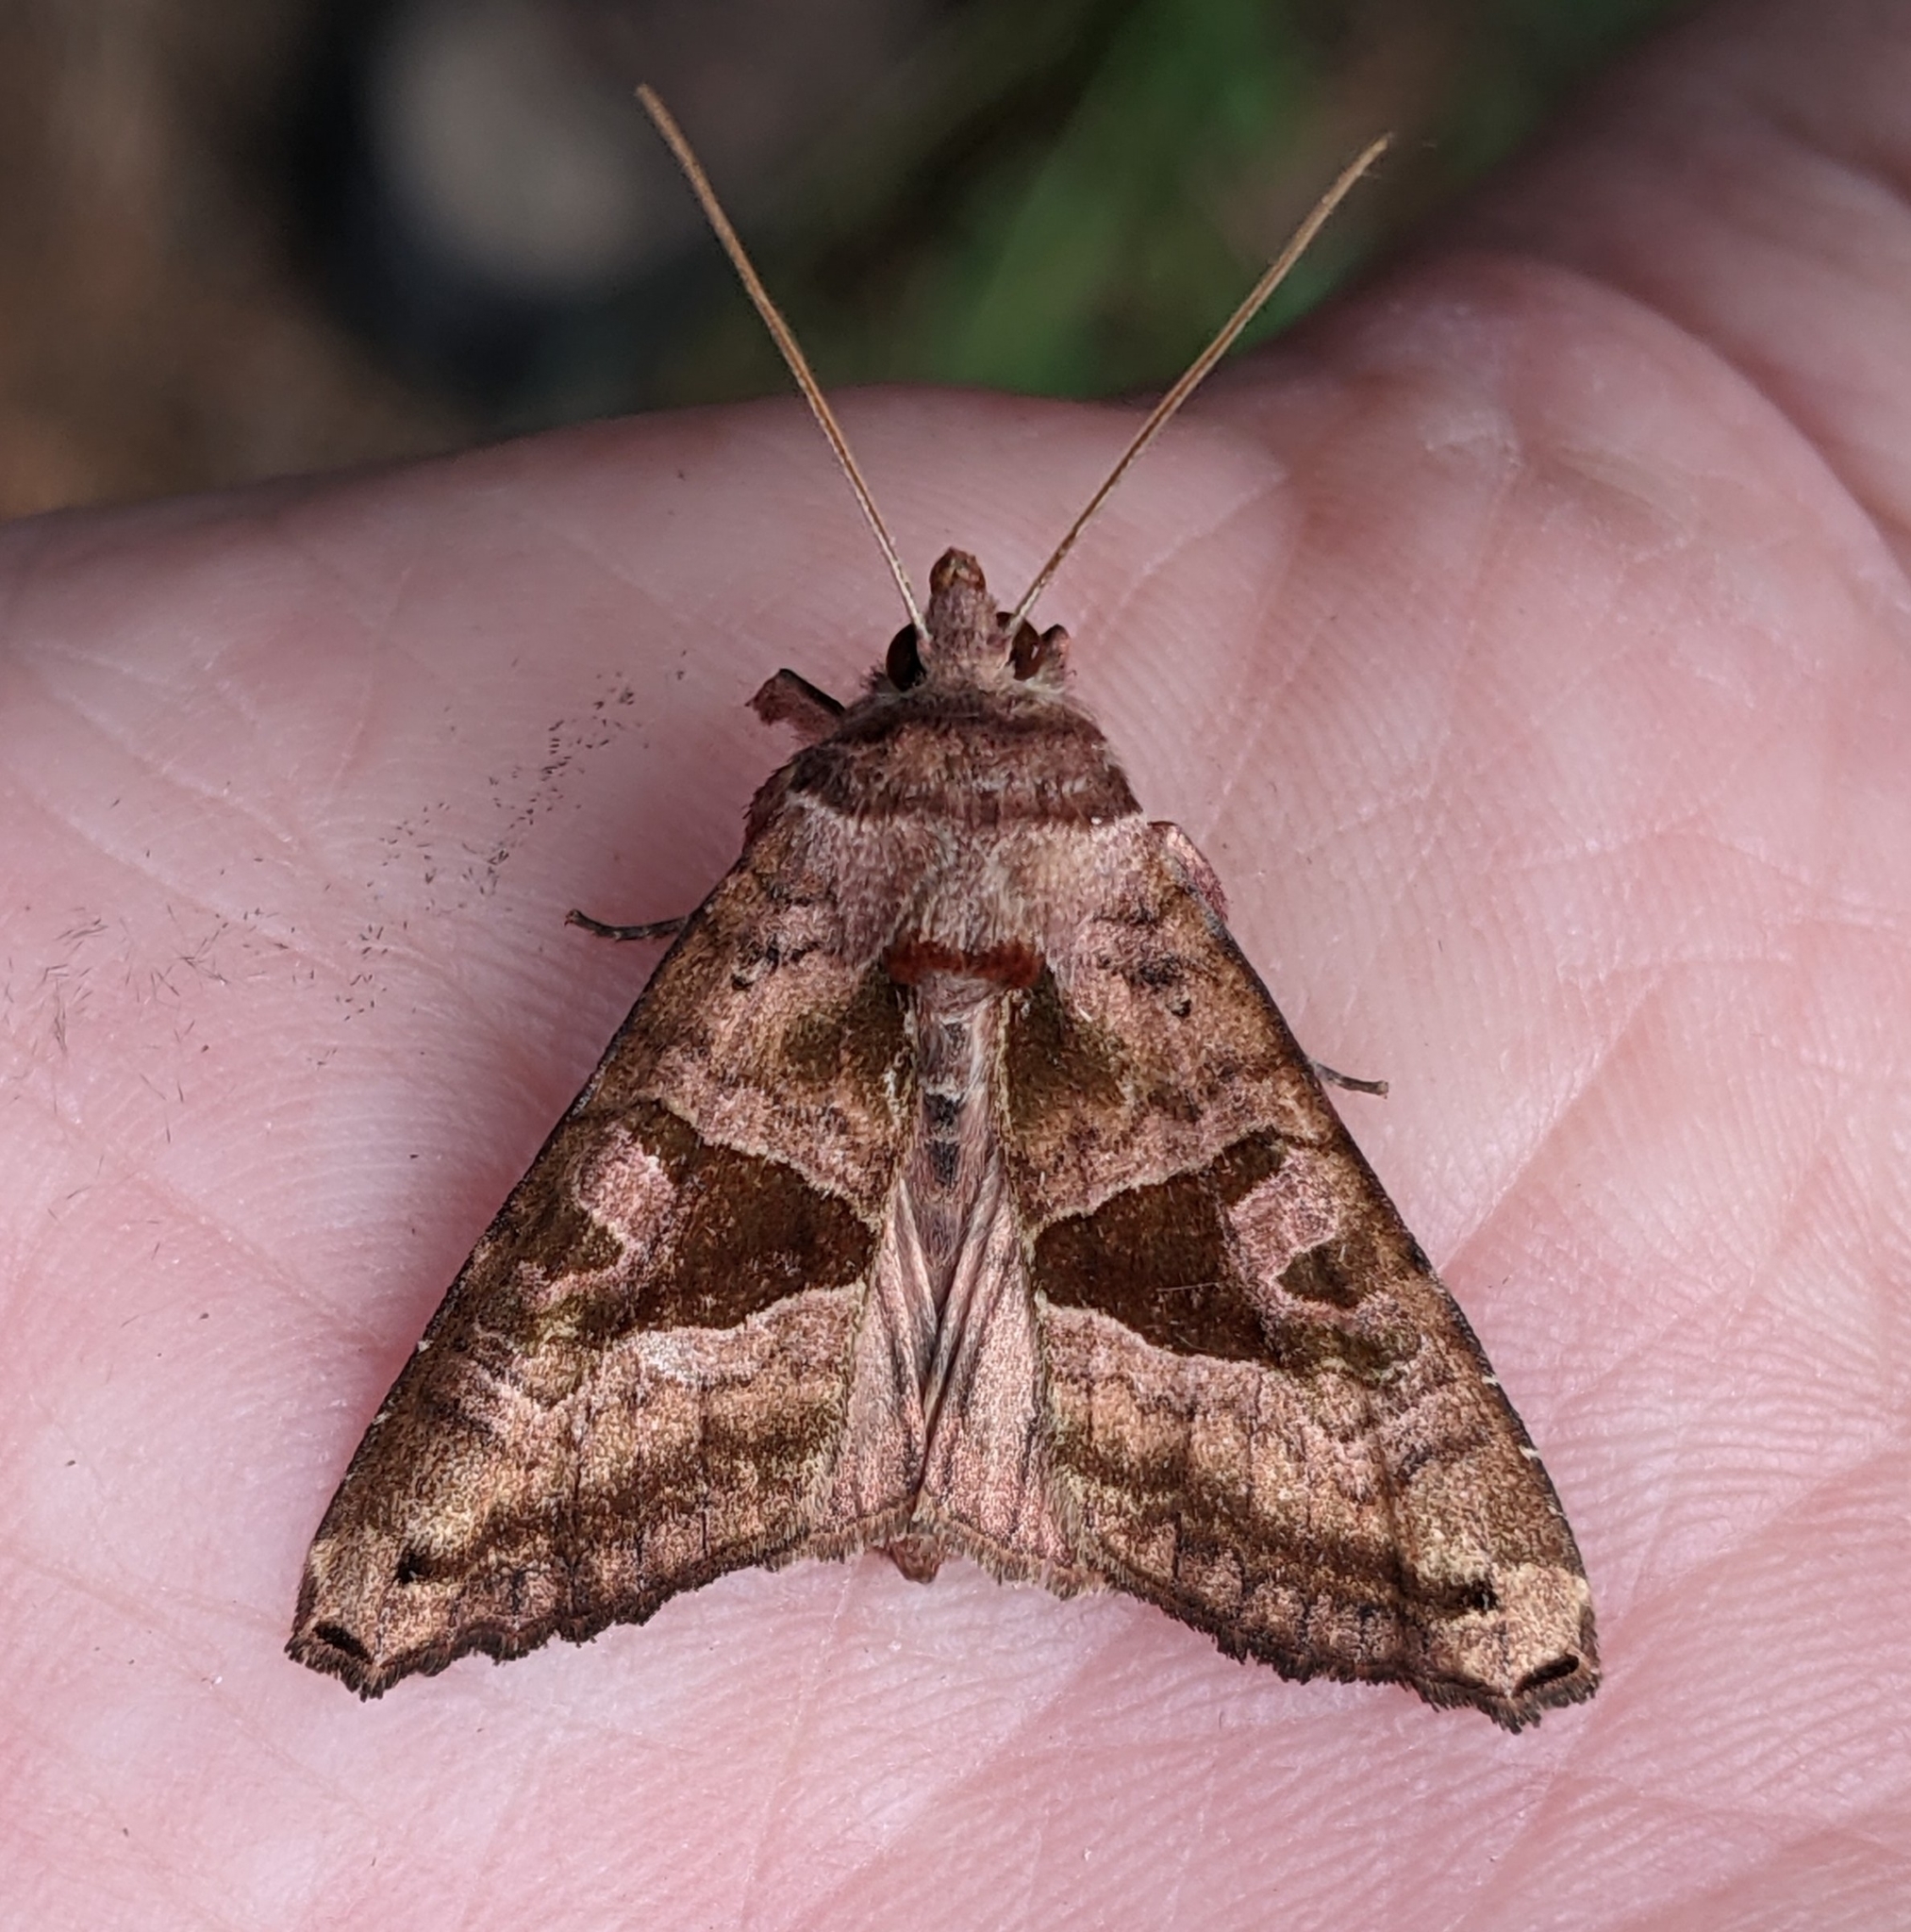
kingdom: Animalia
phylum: Arthropoda
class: Insecta
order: Lepidoptera
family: Noctuidae
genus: Phlogophora
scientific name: Phlogophora periculosa
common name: Brown angle shades
